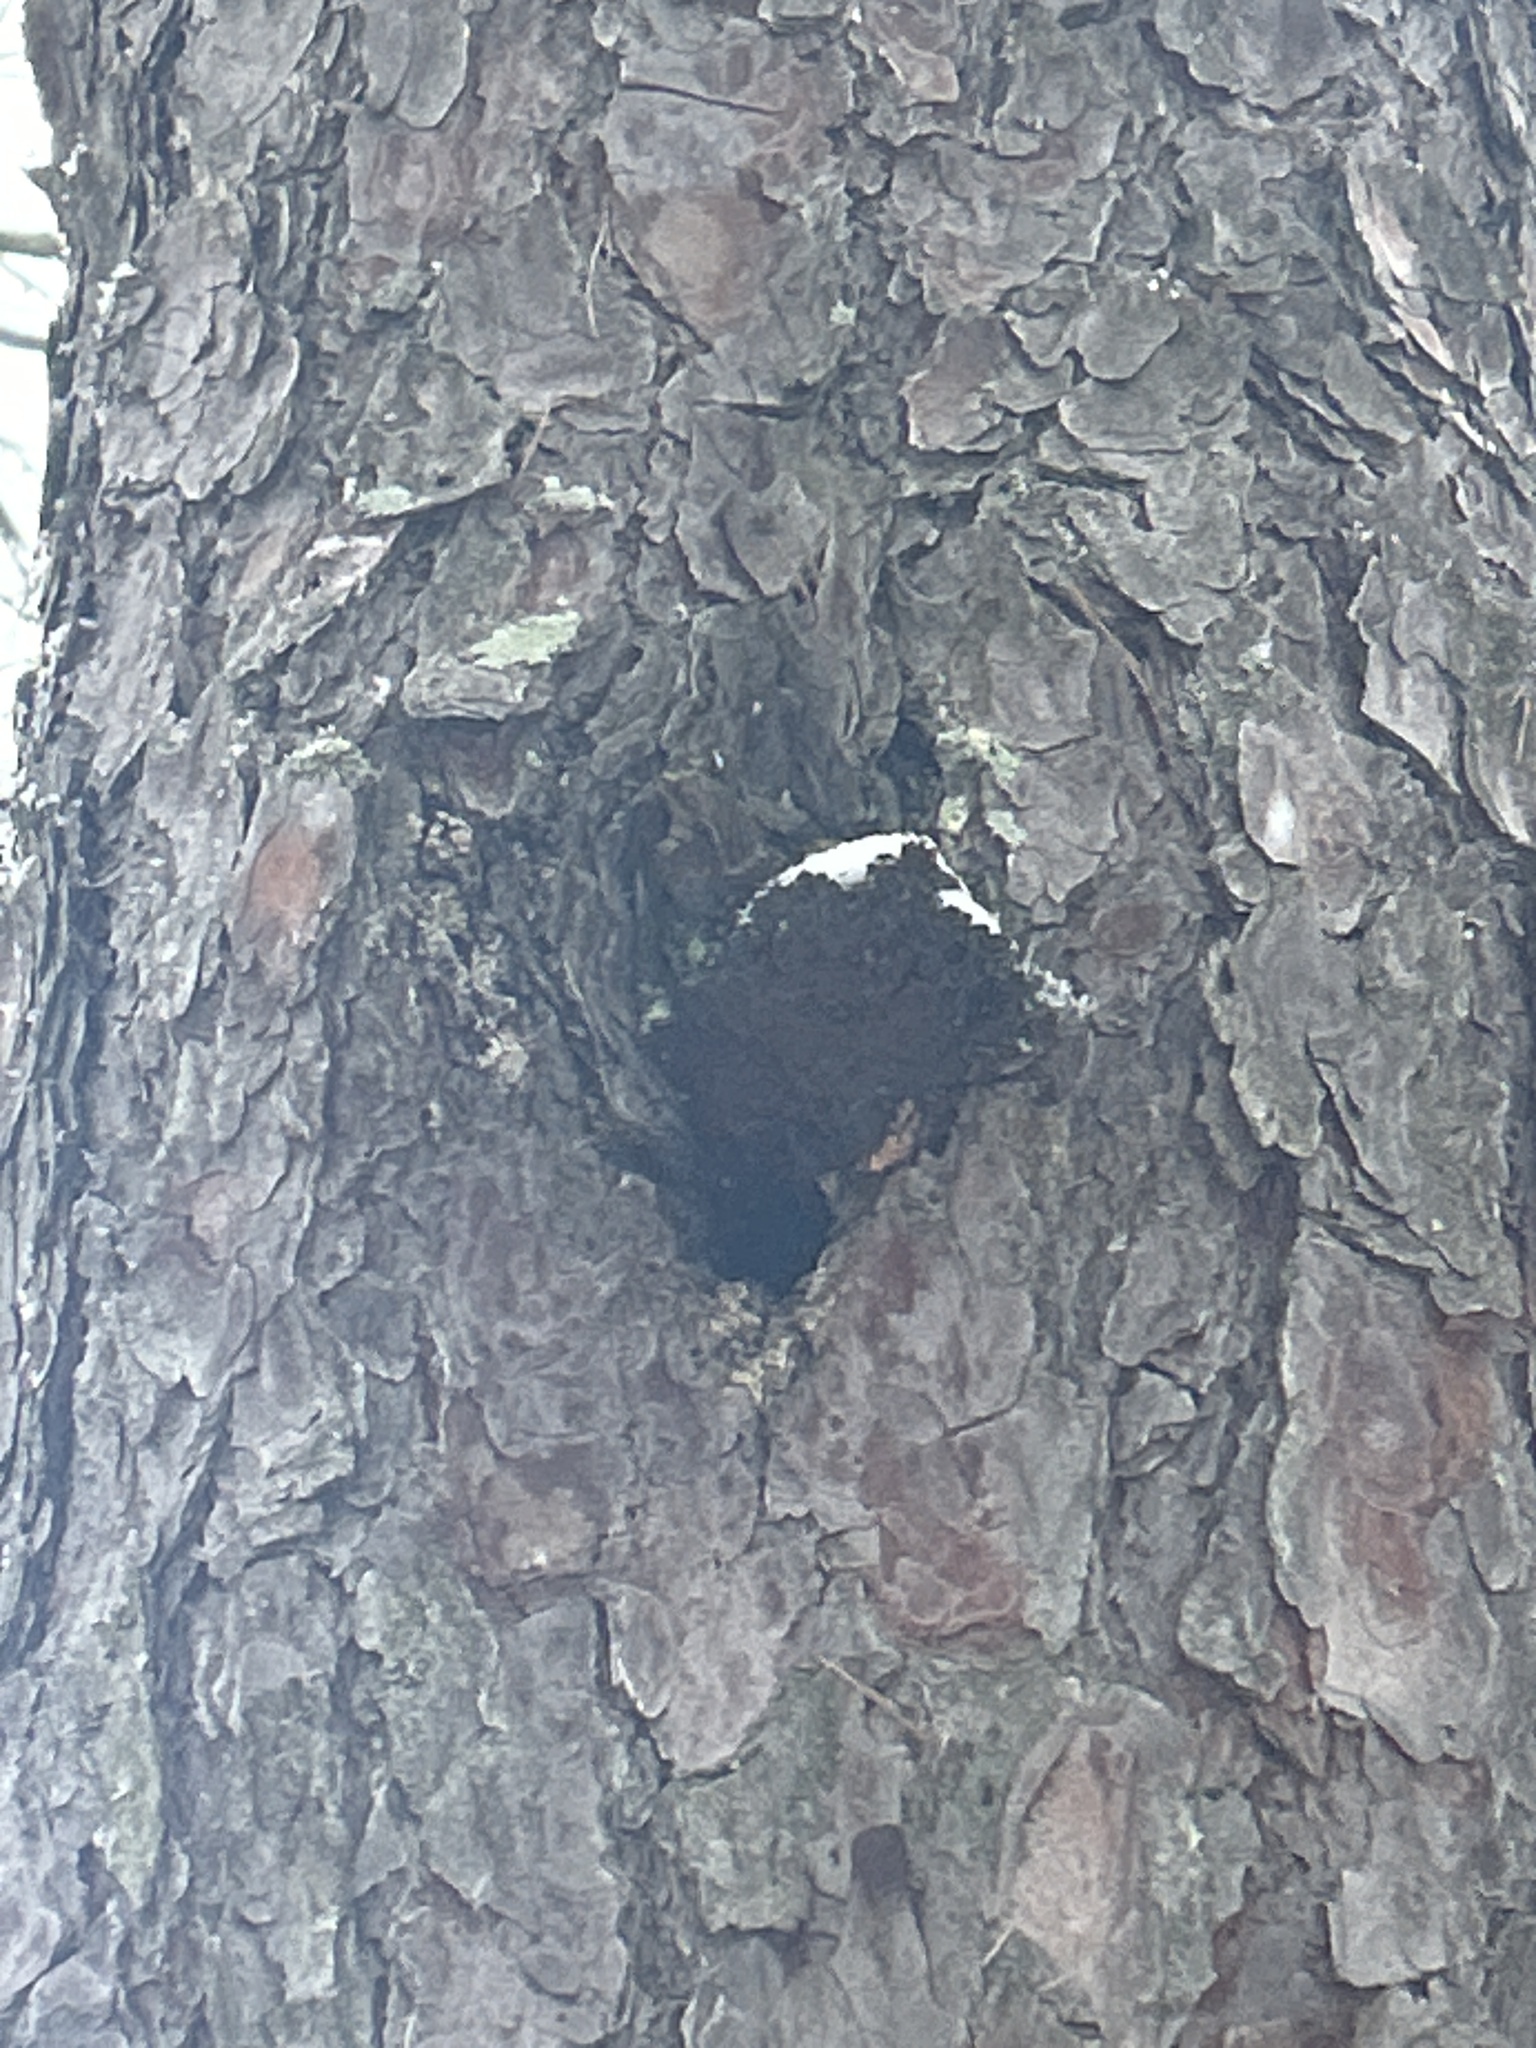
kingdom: Fungi
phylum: Basidiomycota
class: Agaricomycetes
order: Hymenochaetales
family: Hymenochaetaceae
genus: Porodaedalea
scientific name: Porodaedalea pini
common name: Pine bracket
